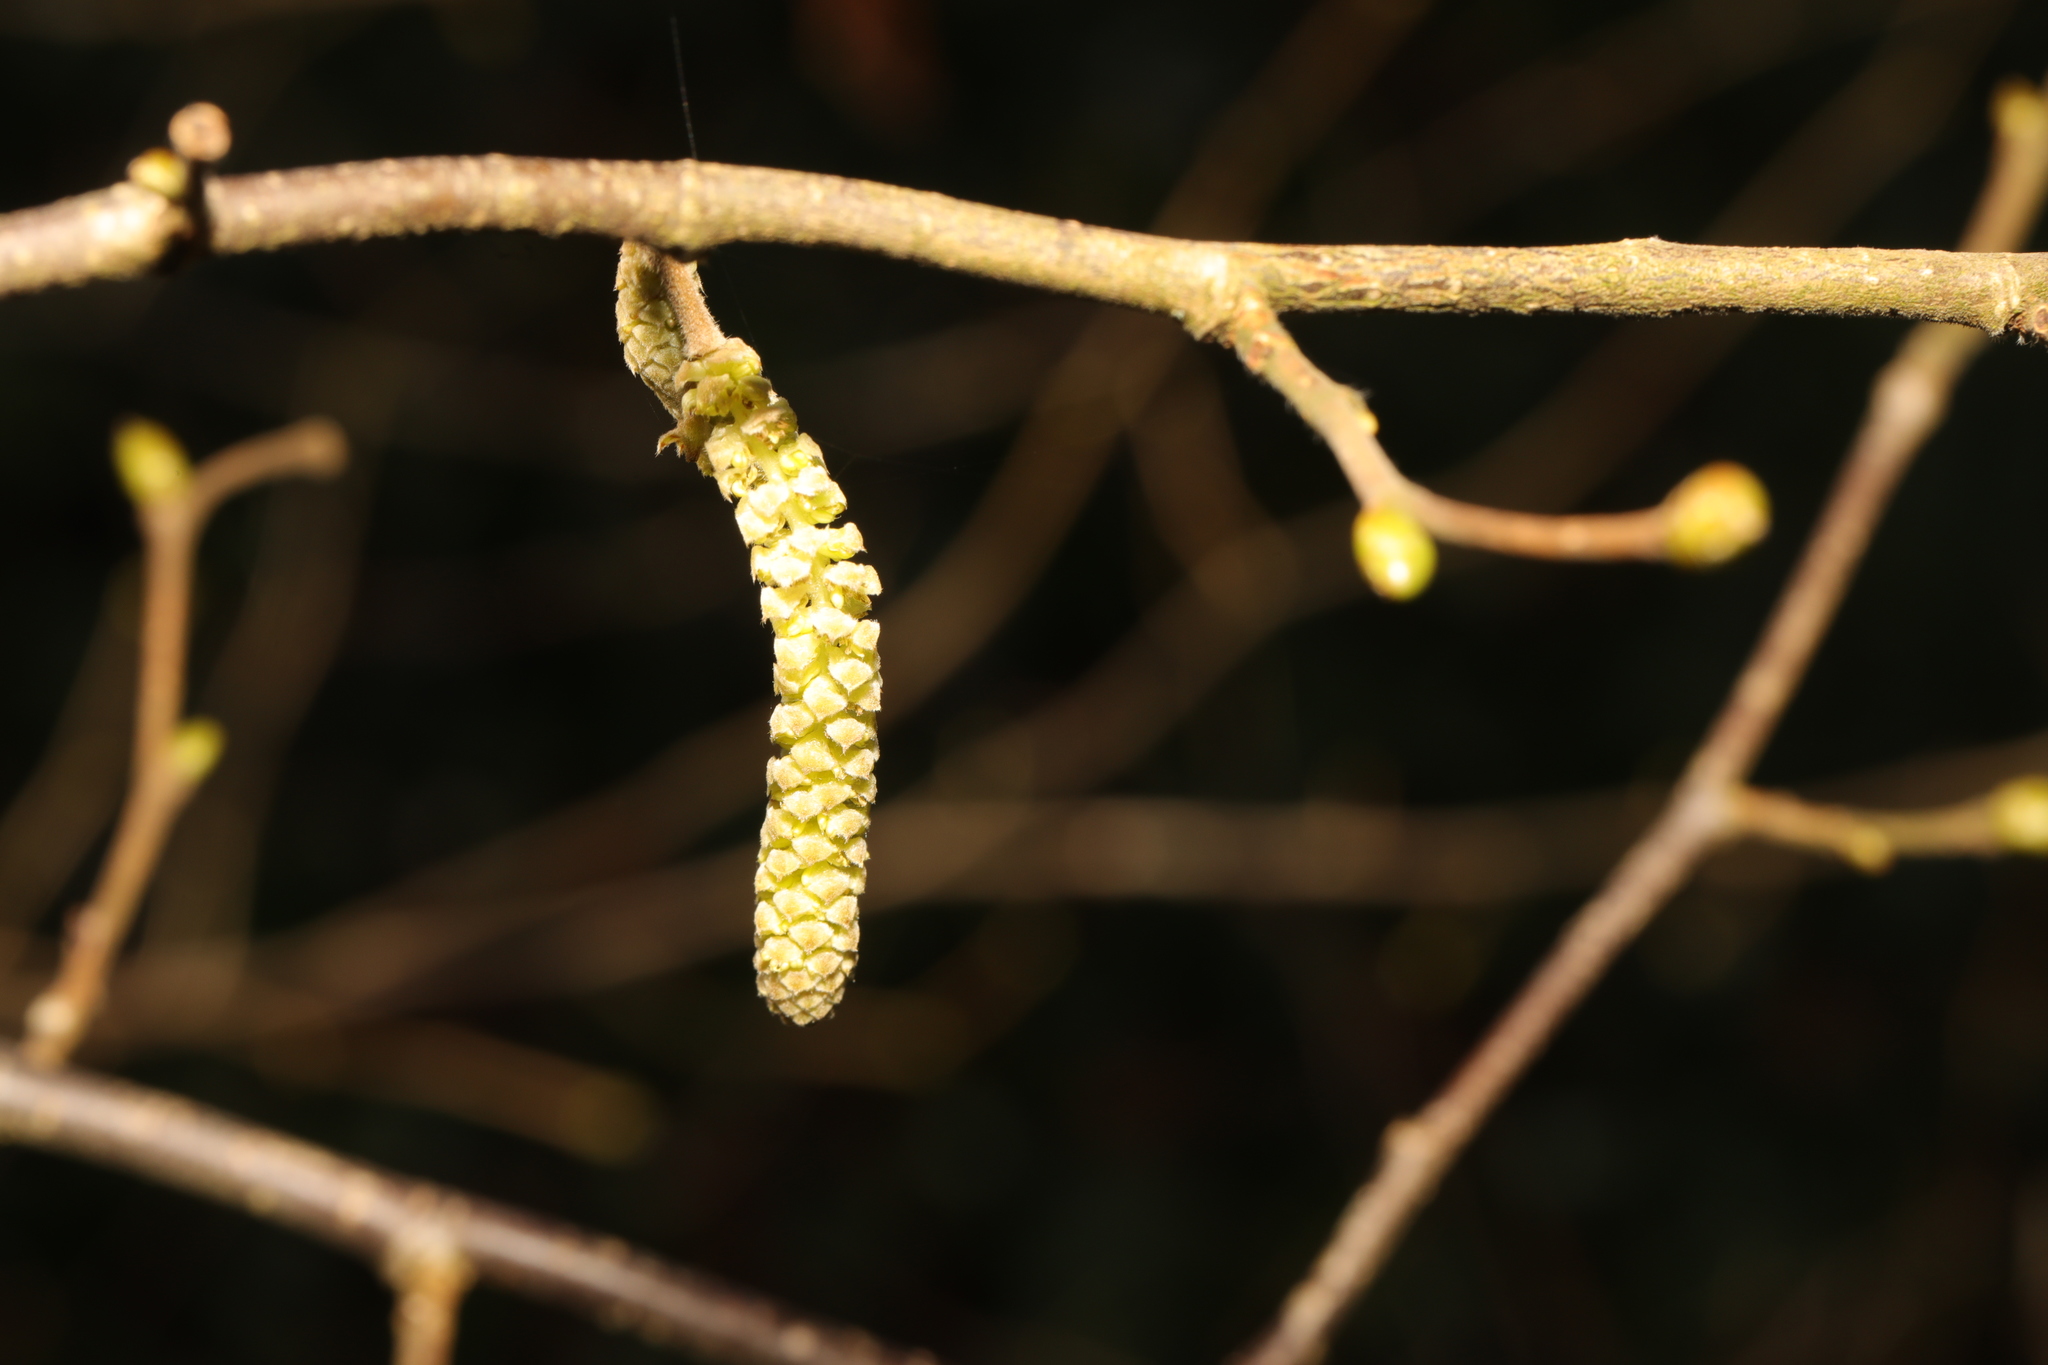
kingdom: Plantae
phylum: Tracheophyta
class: Magnoliopsida
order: Fagales
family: Betulaceae
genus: Corylus
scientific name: Corylus avellana
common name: European hazel
